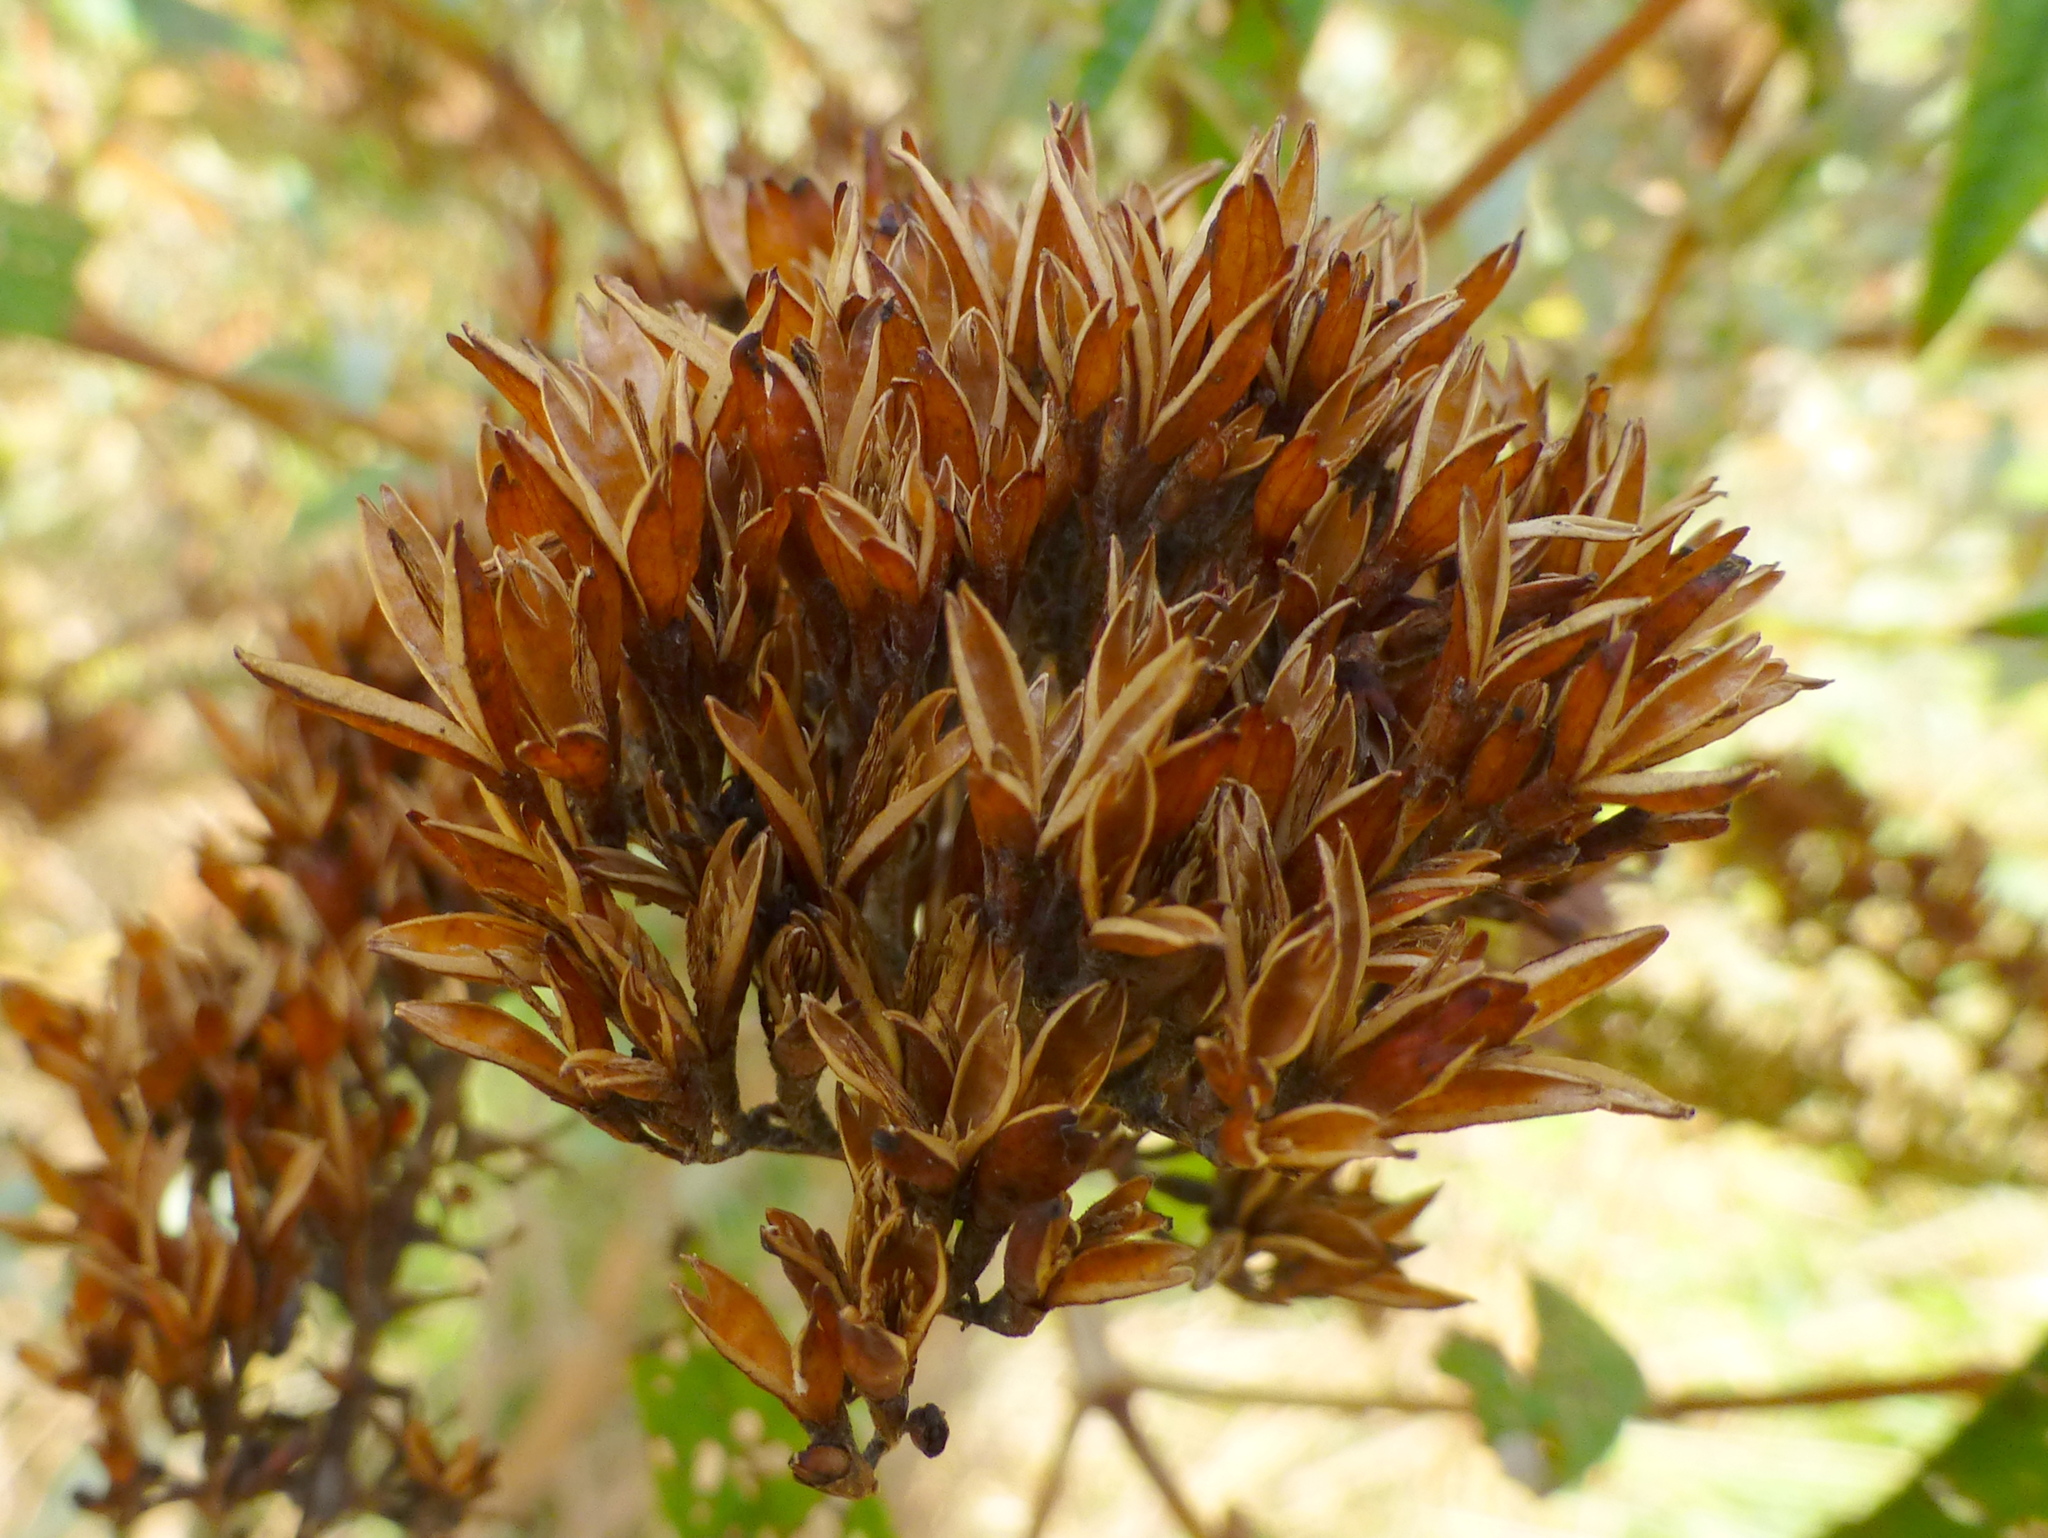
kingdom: Plantae
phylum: Tracheophyta
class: Magnoliopsida
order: Lamiales
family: Scrophulariaceae
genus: Buddleja
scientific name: Buddleja davidii
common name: Butterfly-bush
